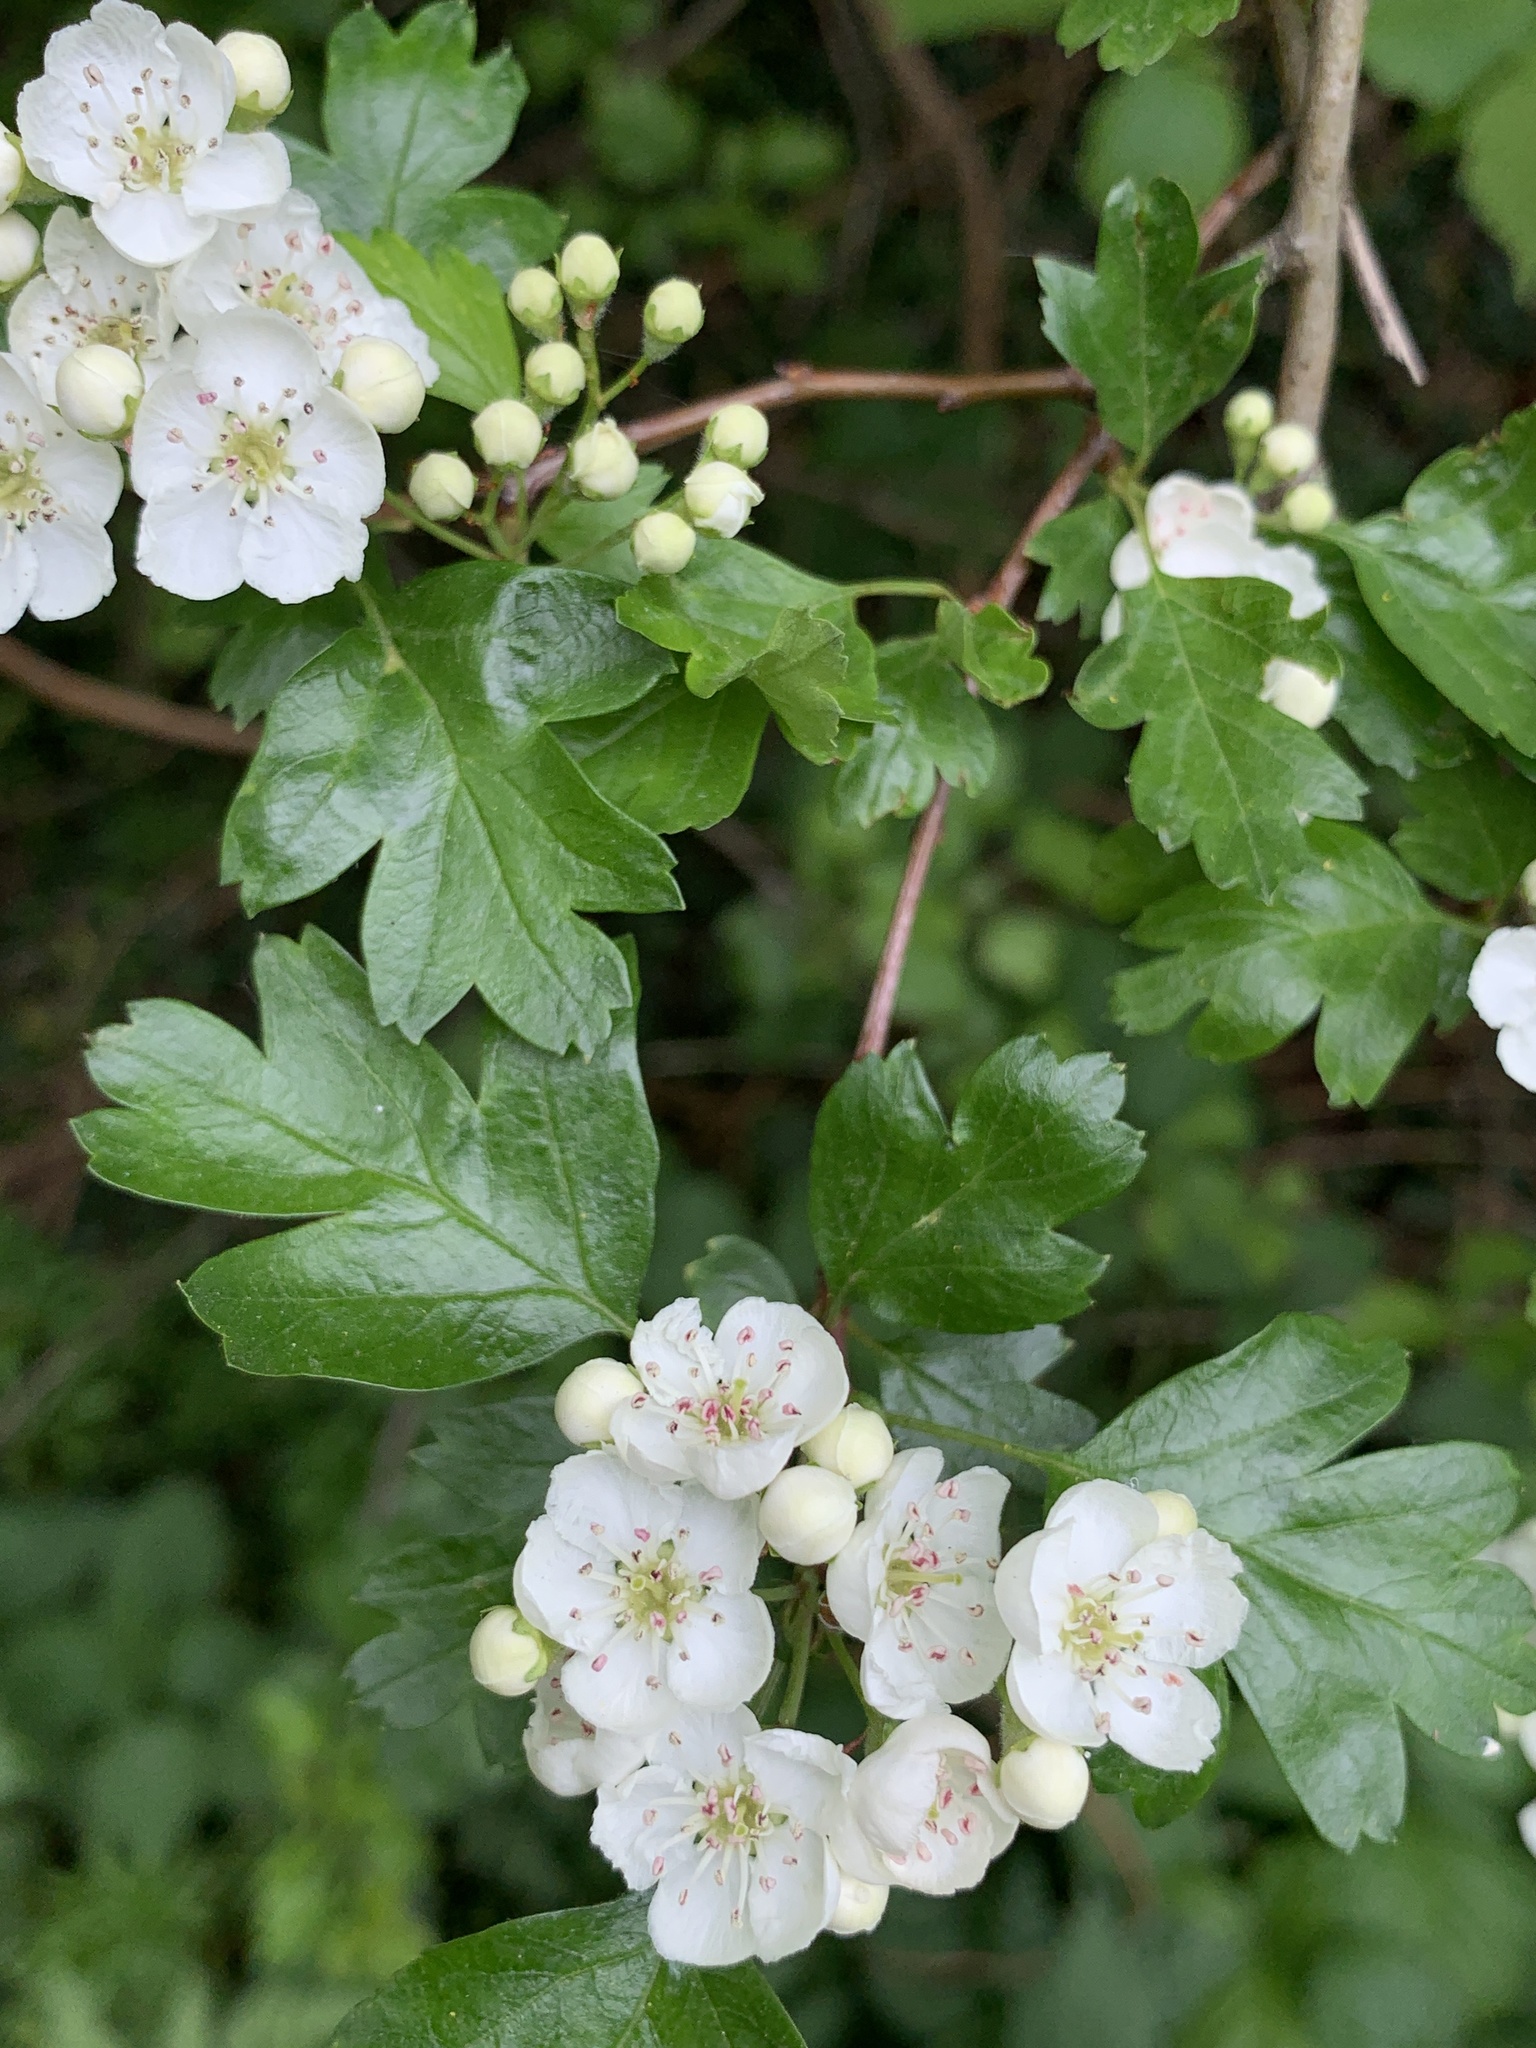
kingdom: Plantae
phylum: Tracheophyta
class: Magnoliopsida
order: Rosales
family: Rosaceae
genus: Crataegus
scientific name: Crataegus monogyna
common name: Hawthorn
